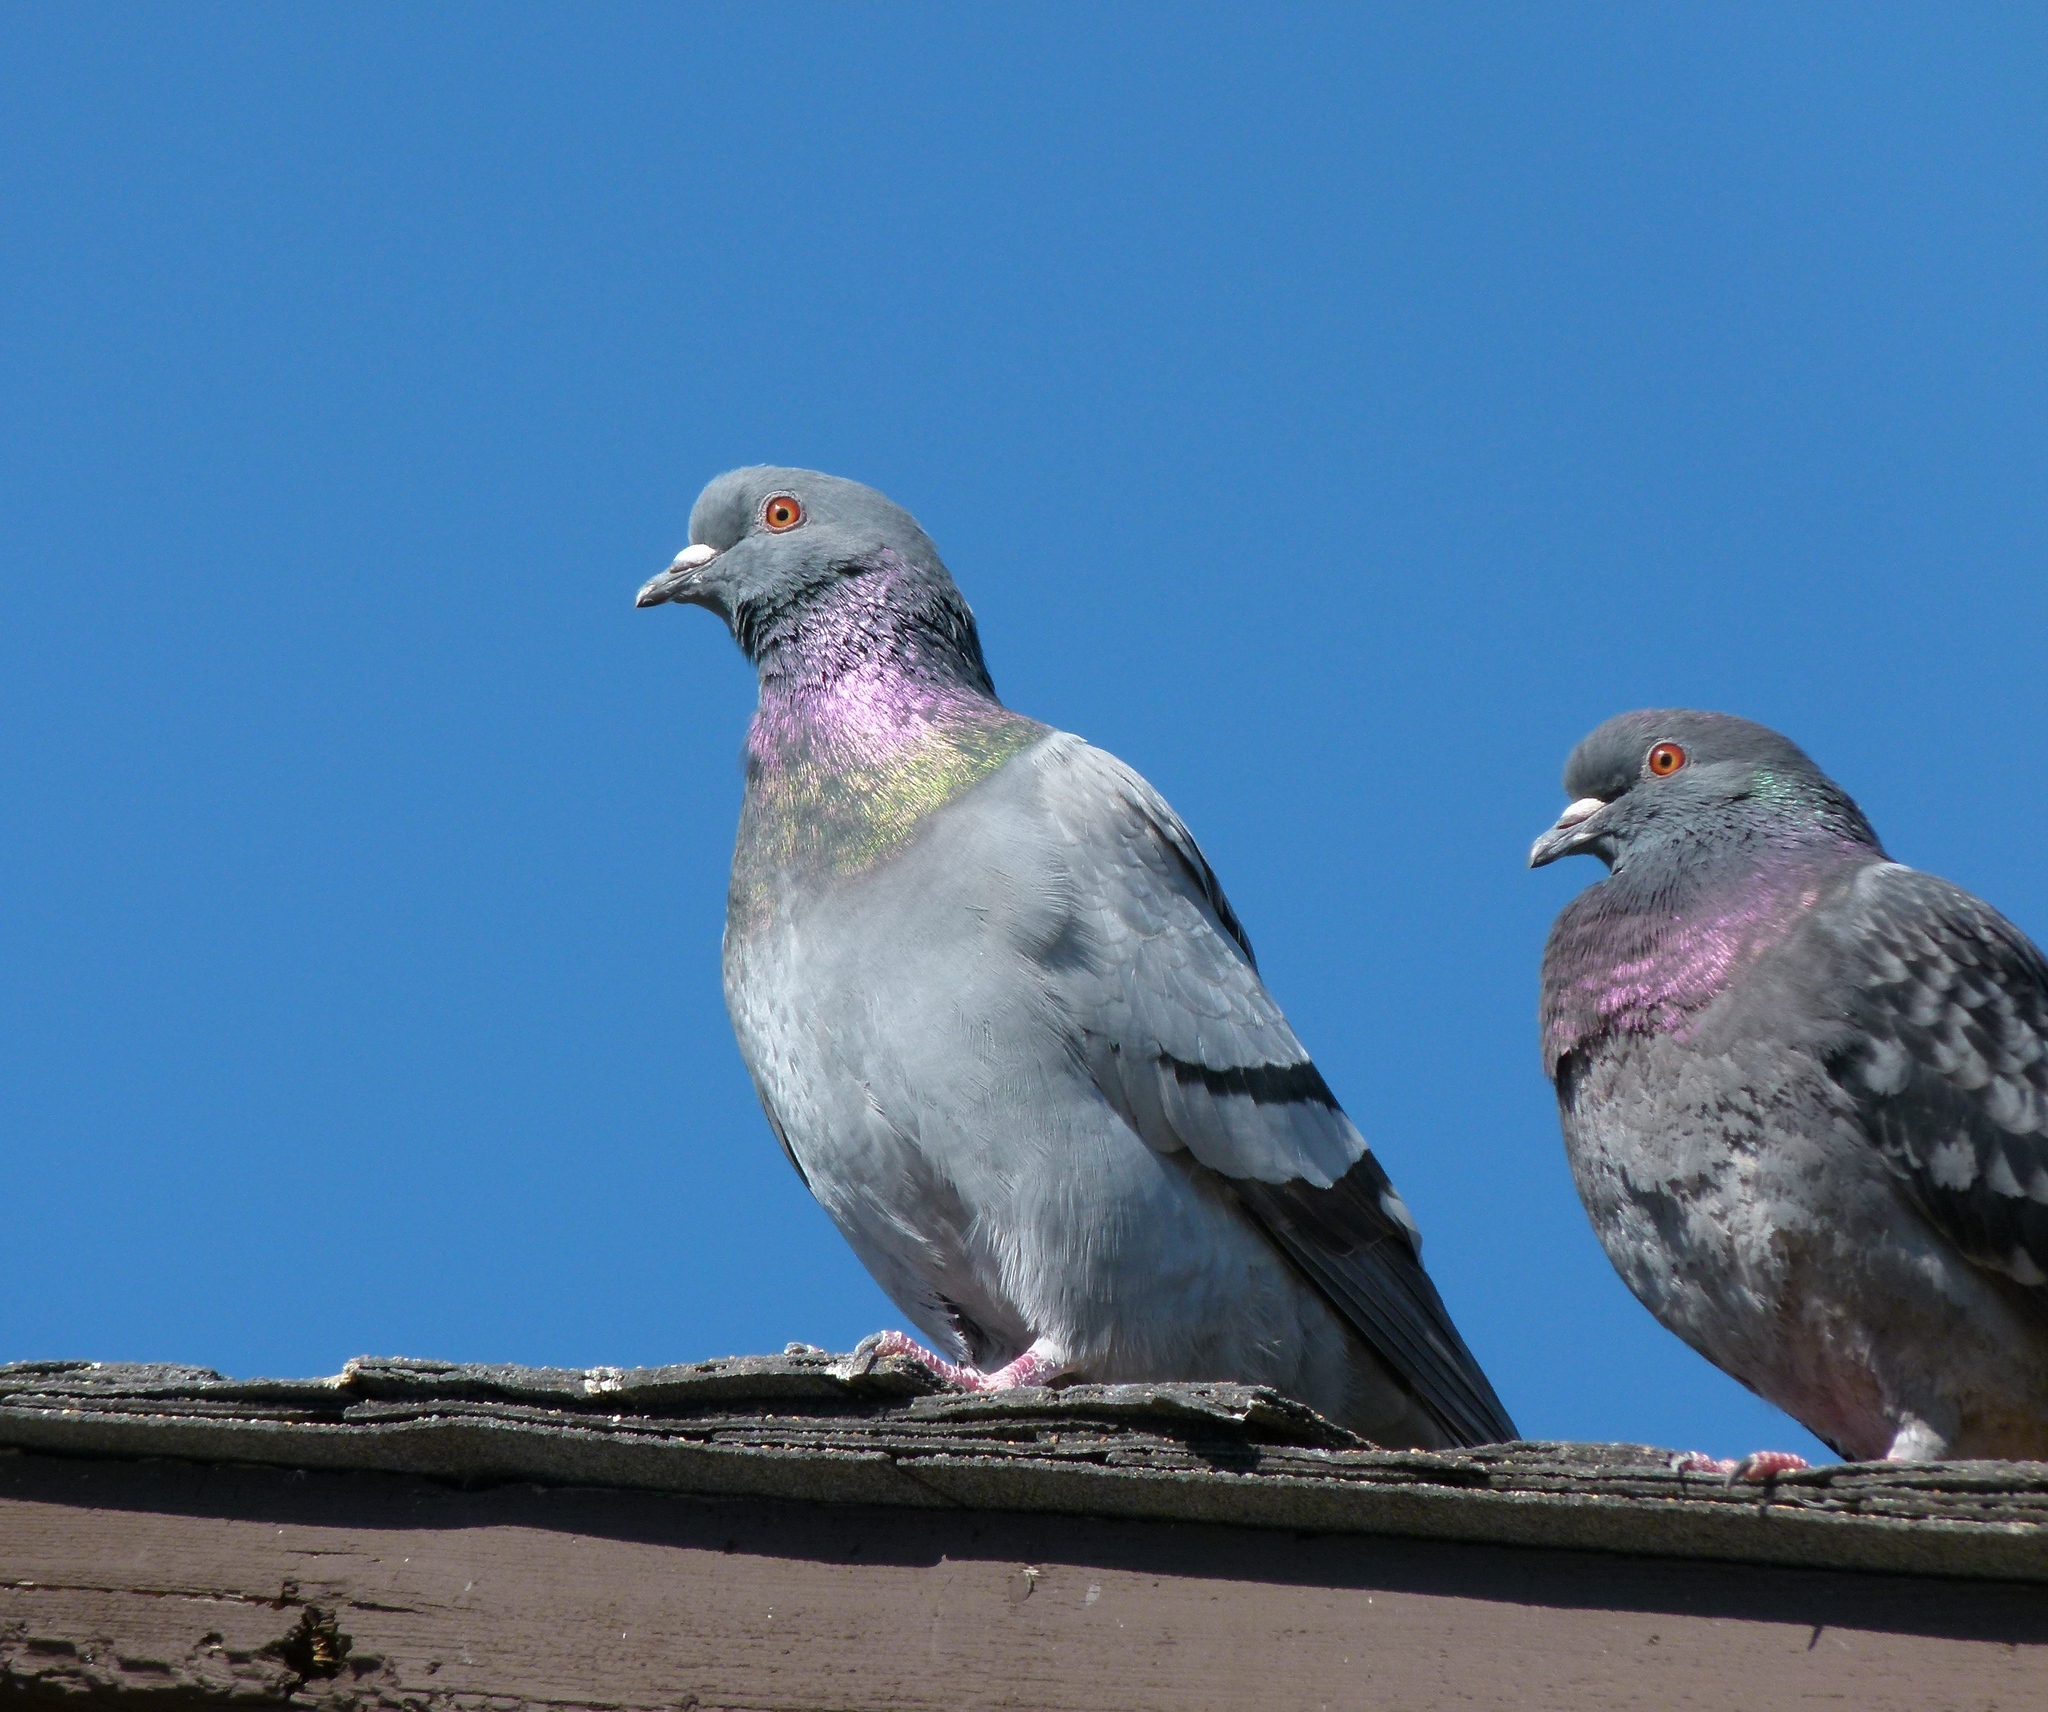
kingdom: Animalia
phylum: Chordata
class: Aves
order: Columbiformes
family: Columbidae
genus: Columba
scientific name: Columba livia
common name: Rock pigeon
